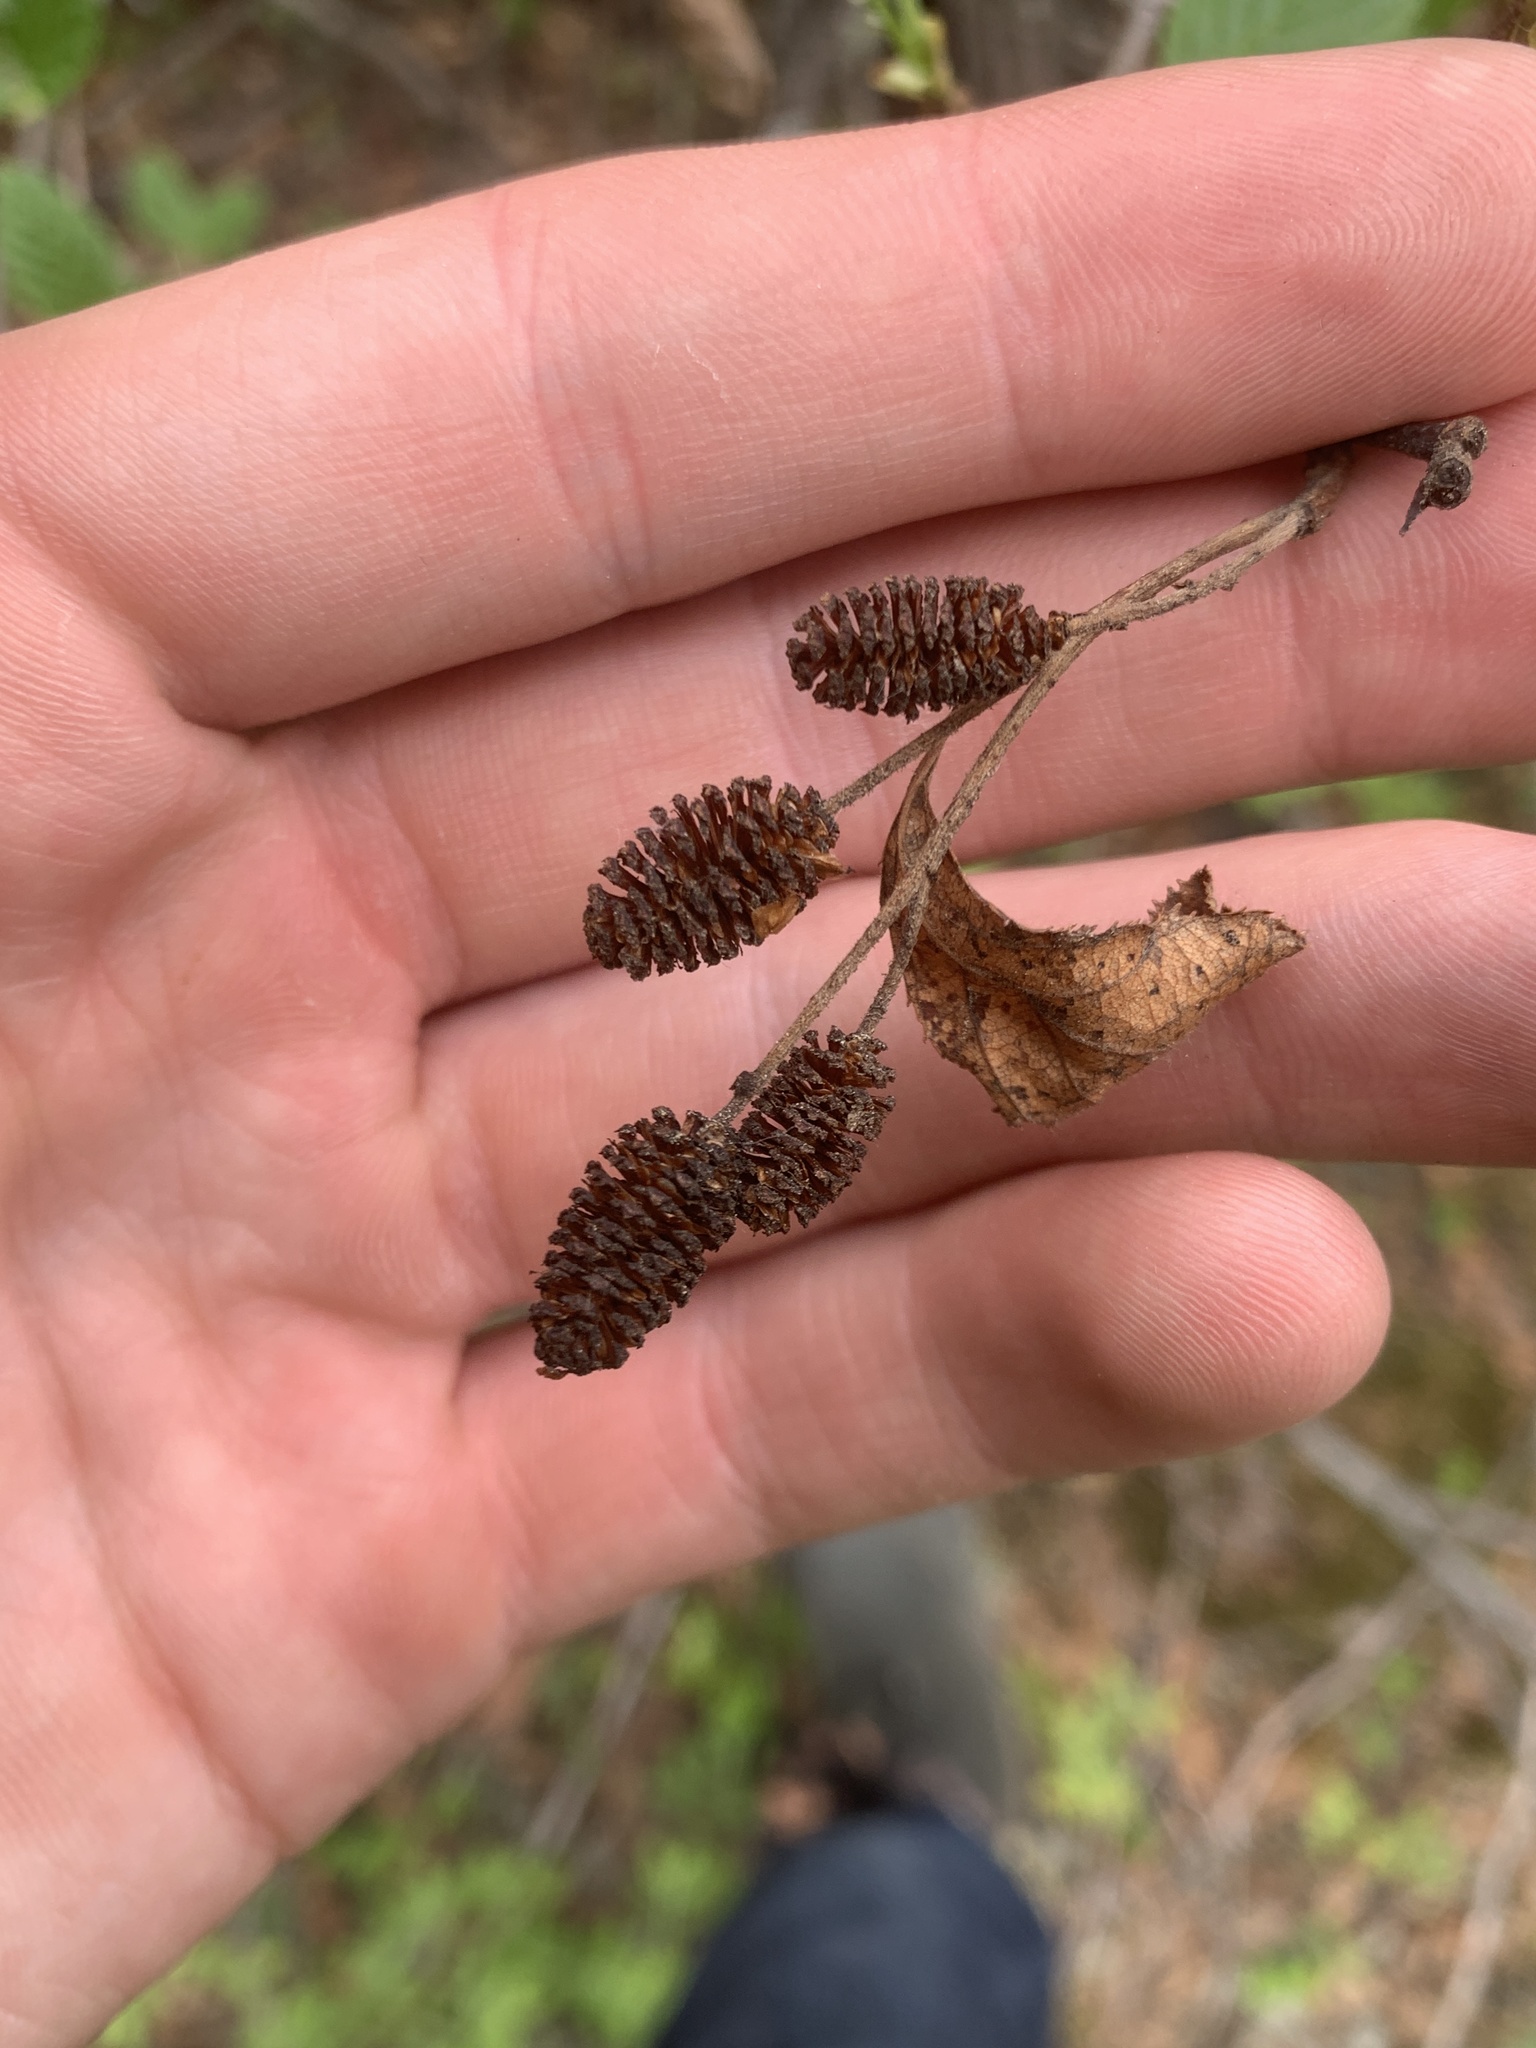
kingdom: Plantae
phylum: Tracheophyta
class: Magnoliopsida
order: Fagales
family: Betulaceae
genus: Alnus
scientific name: Alnus alnobetula
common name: Green alder
